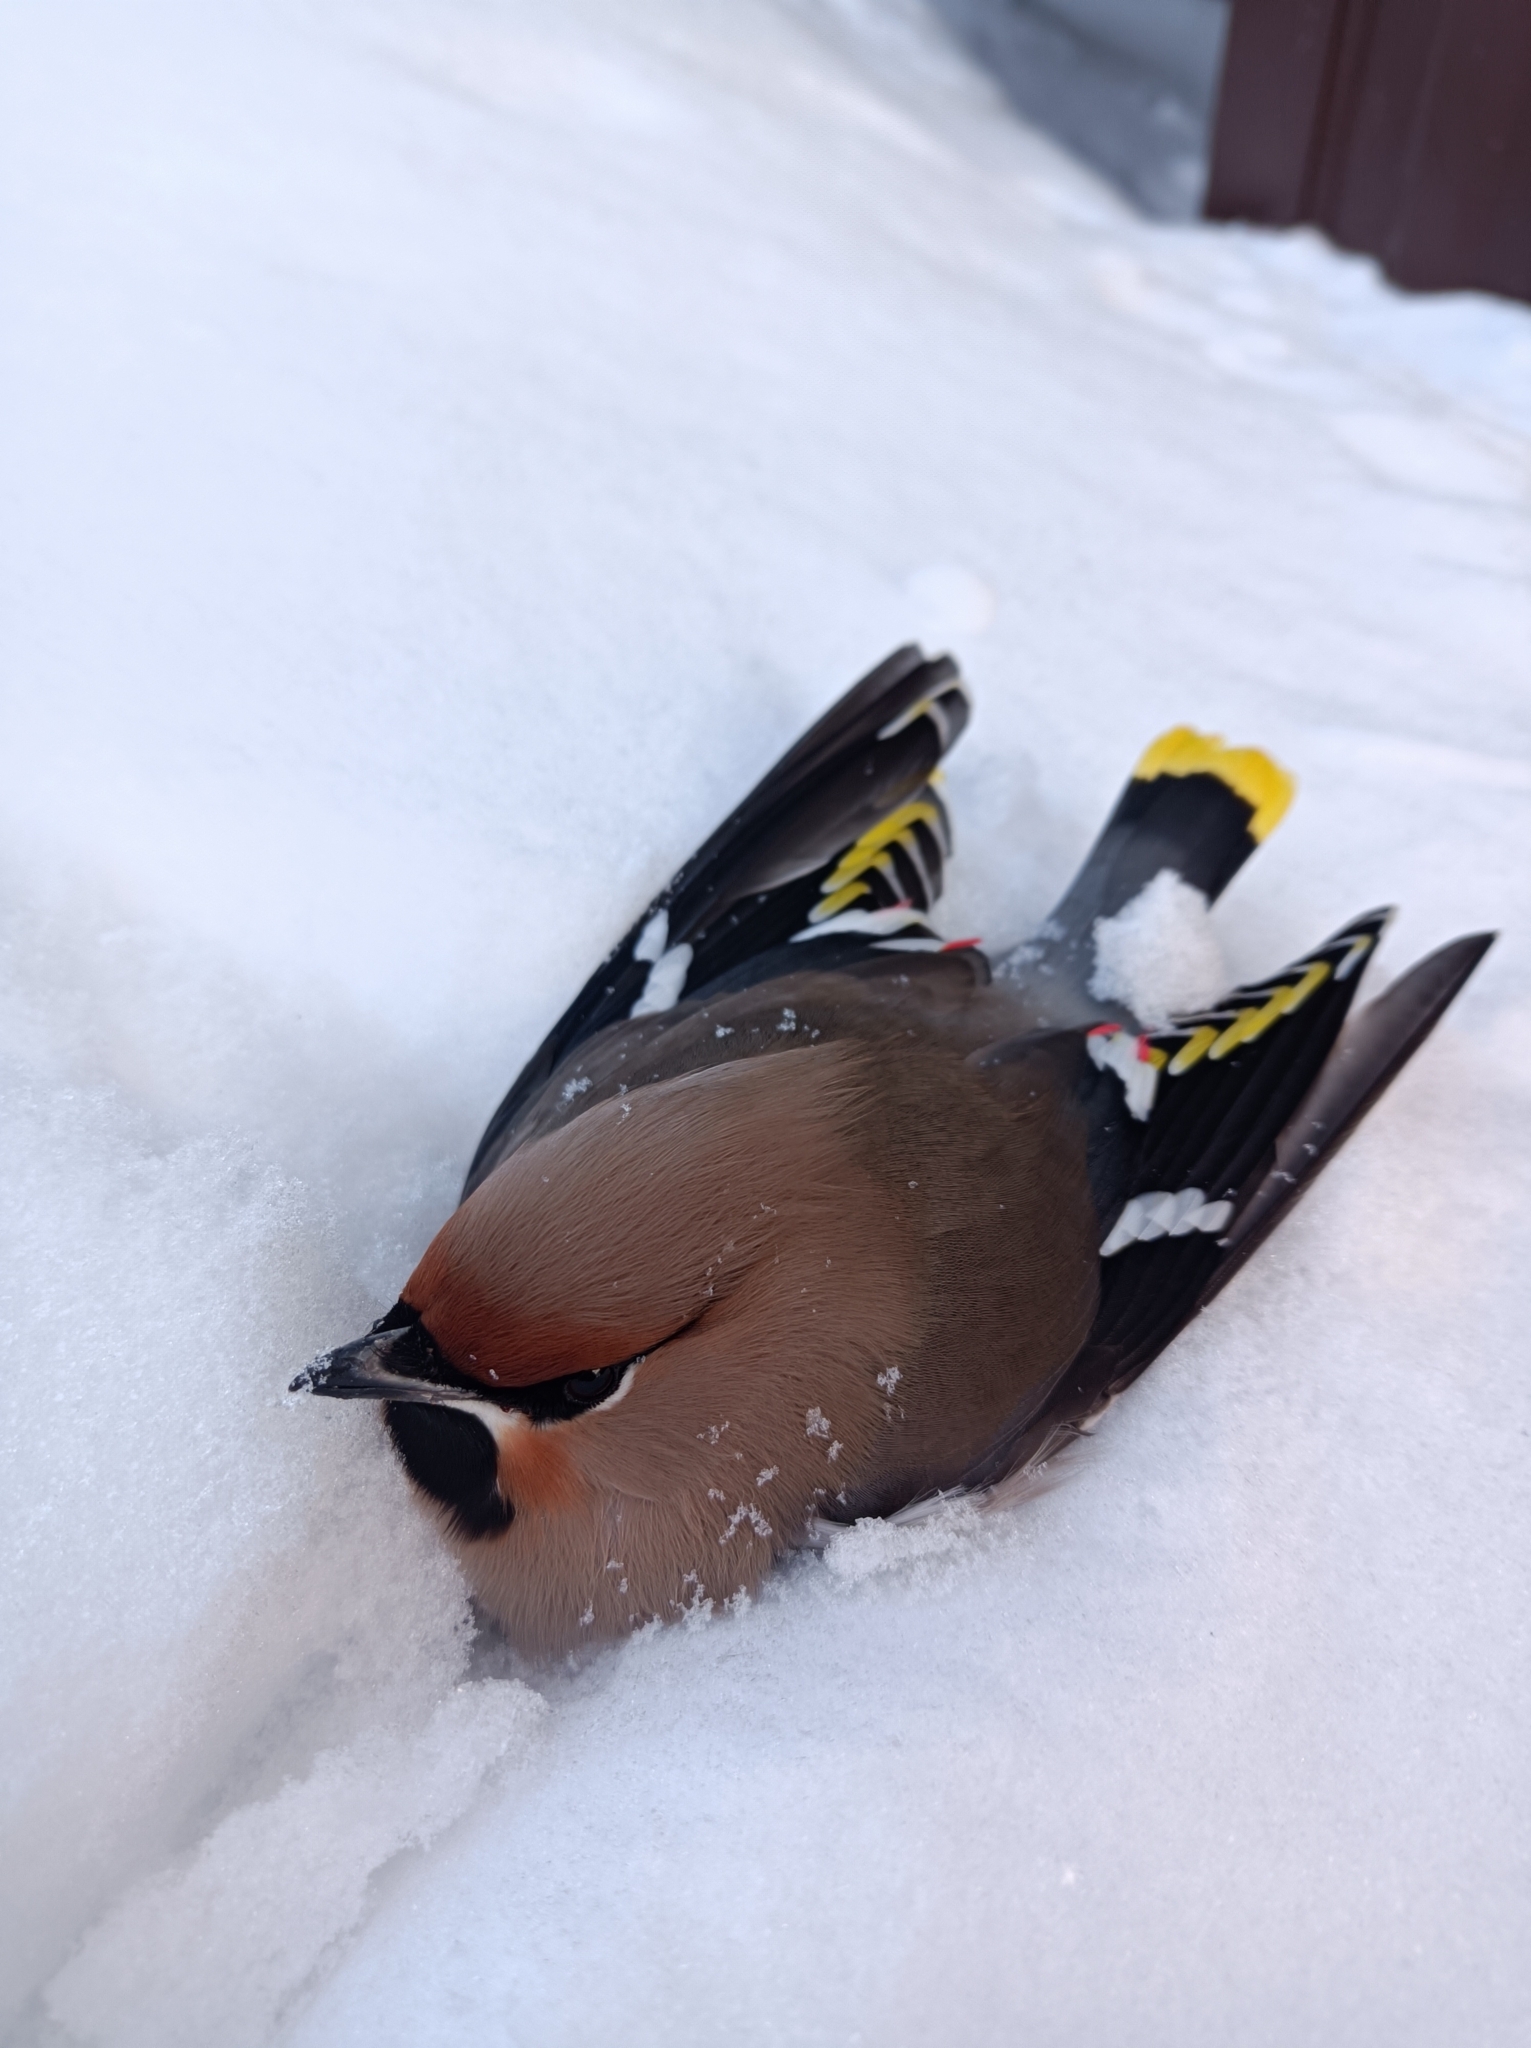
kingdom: Animalia
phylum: Chordata
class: Aves
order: Passeriformes
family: Bombycillidae
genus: Bombycilla
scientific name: Bombycilla garrulus
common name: Bohemian waxwing
